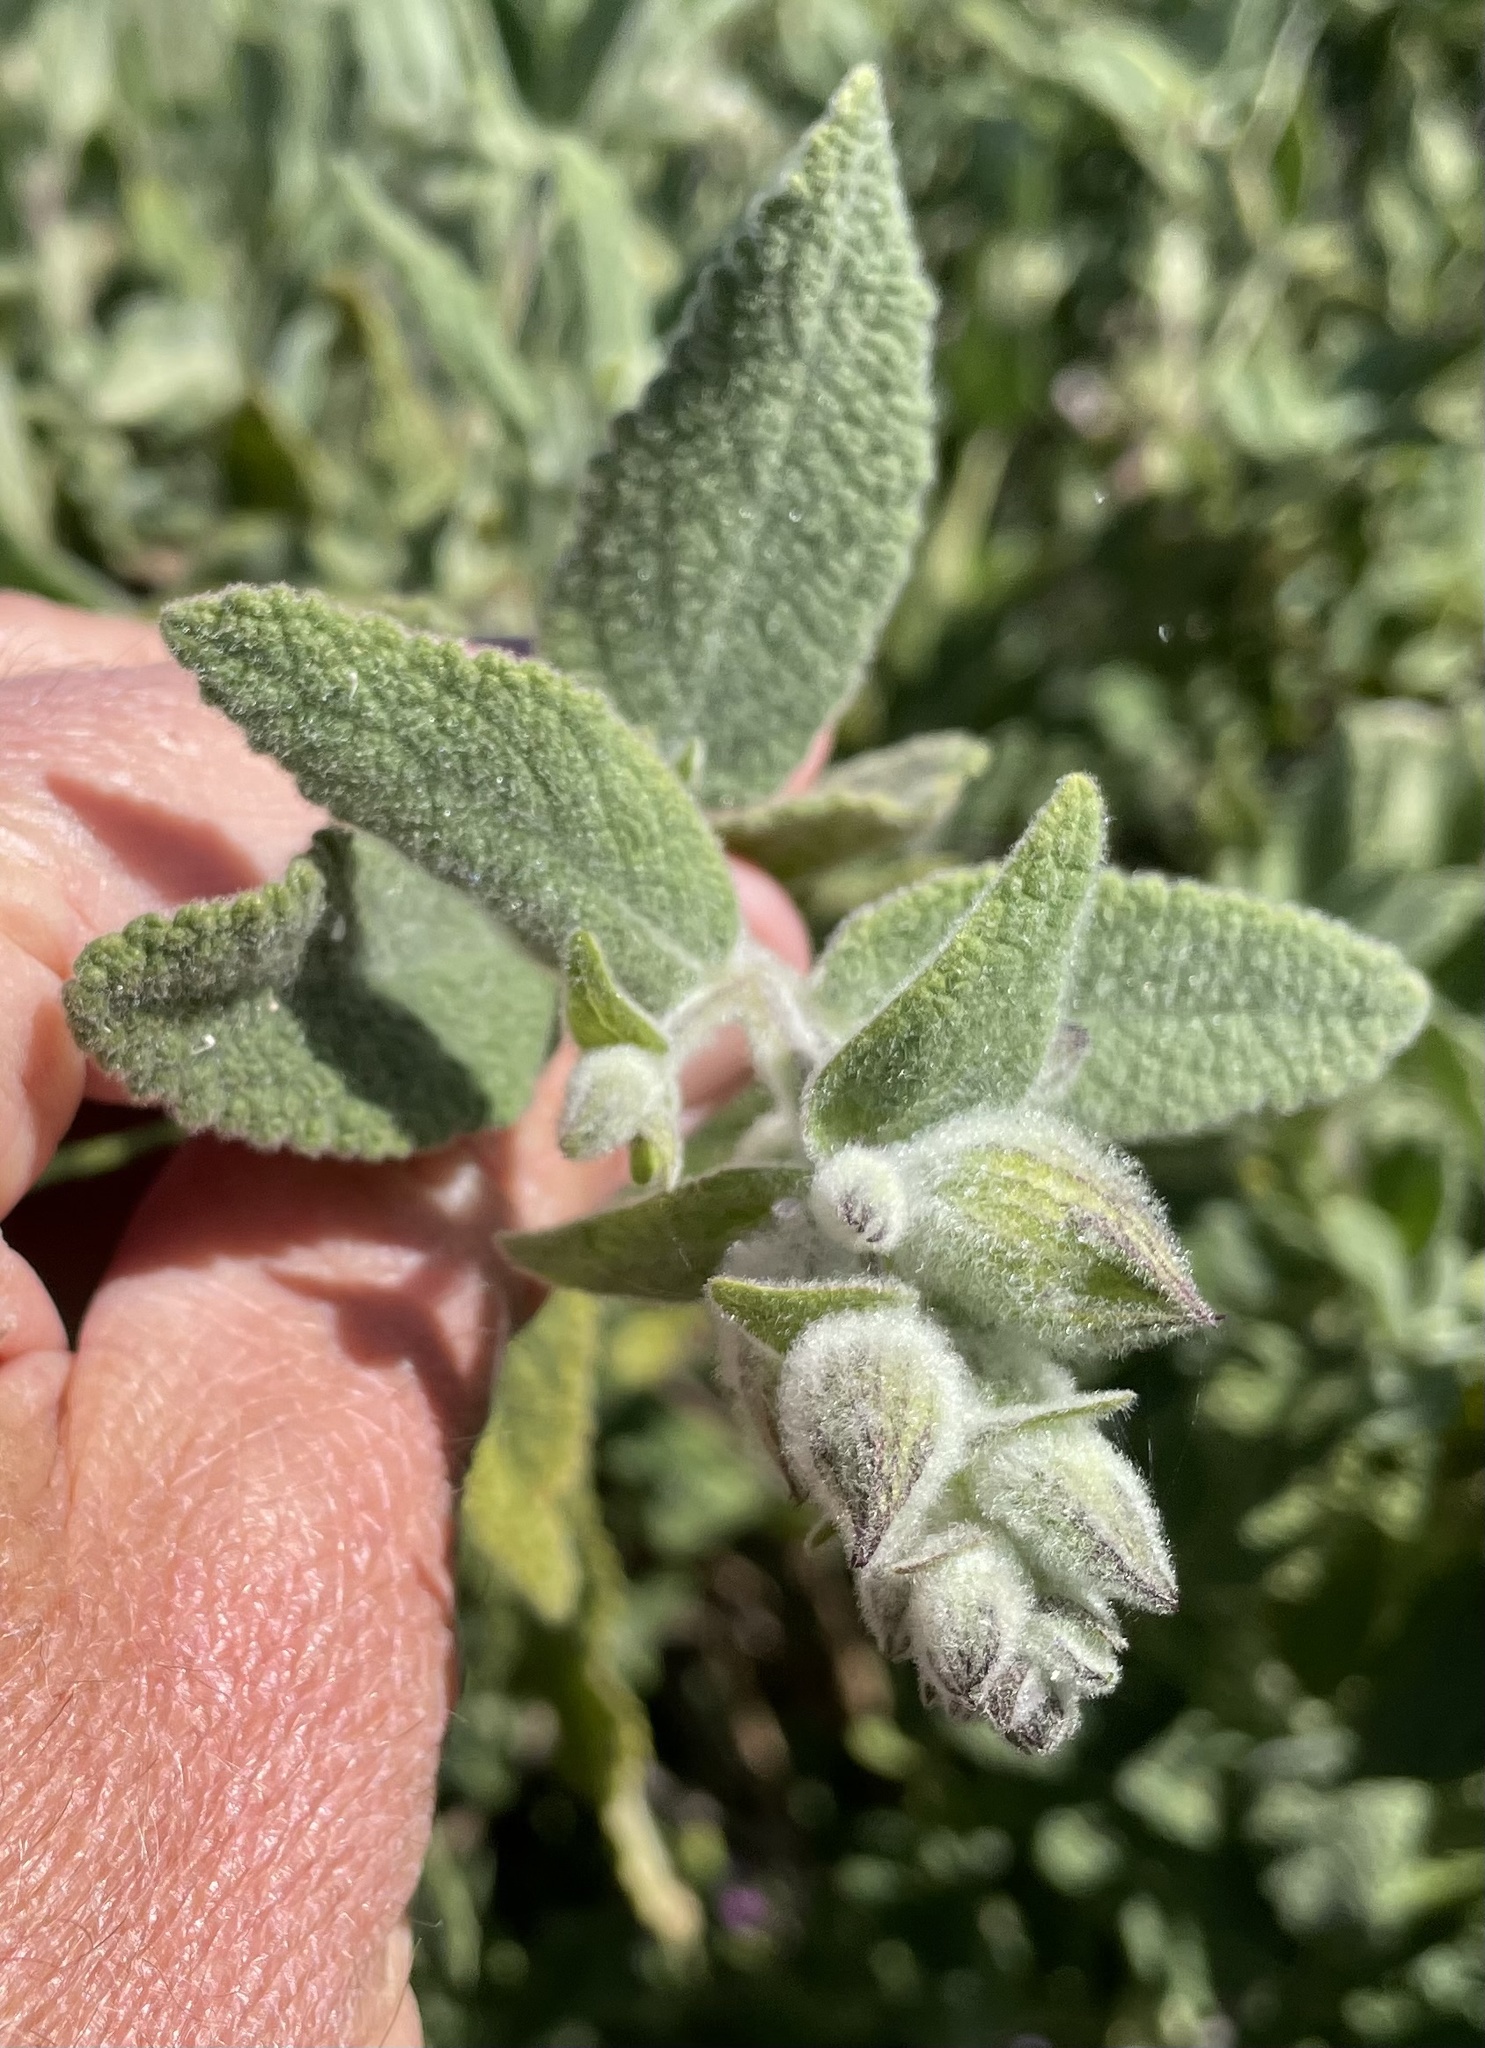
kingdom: Plantae
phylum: Tracheophyta
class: Magnoliopsida
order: Lamiales
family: Lamiaceae
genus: Lepechinia
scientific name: Lepechinia calycina
